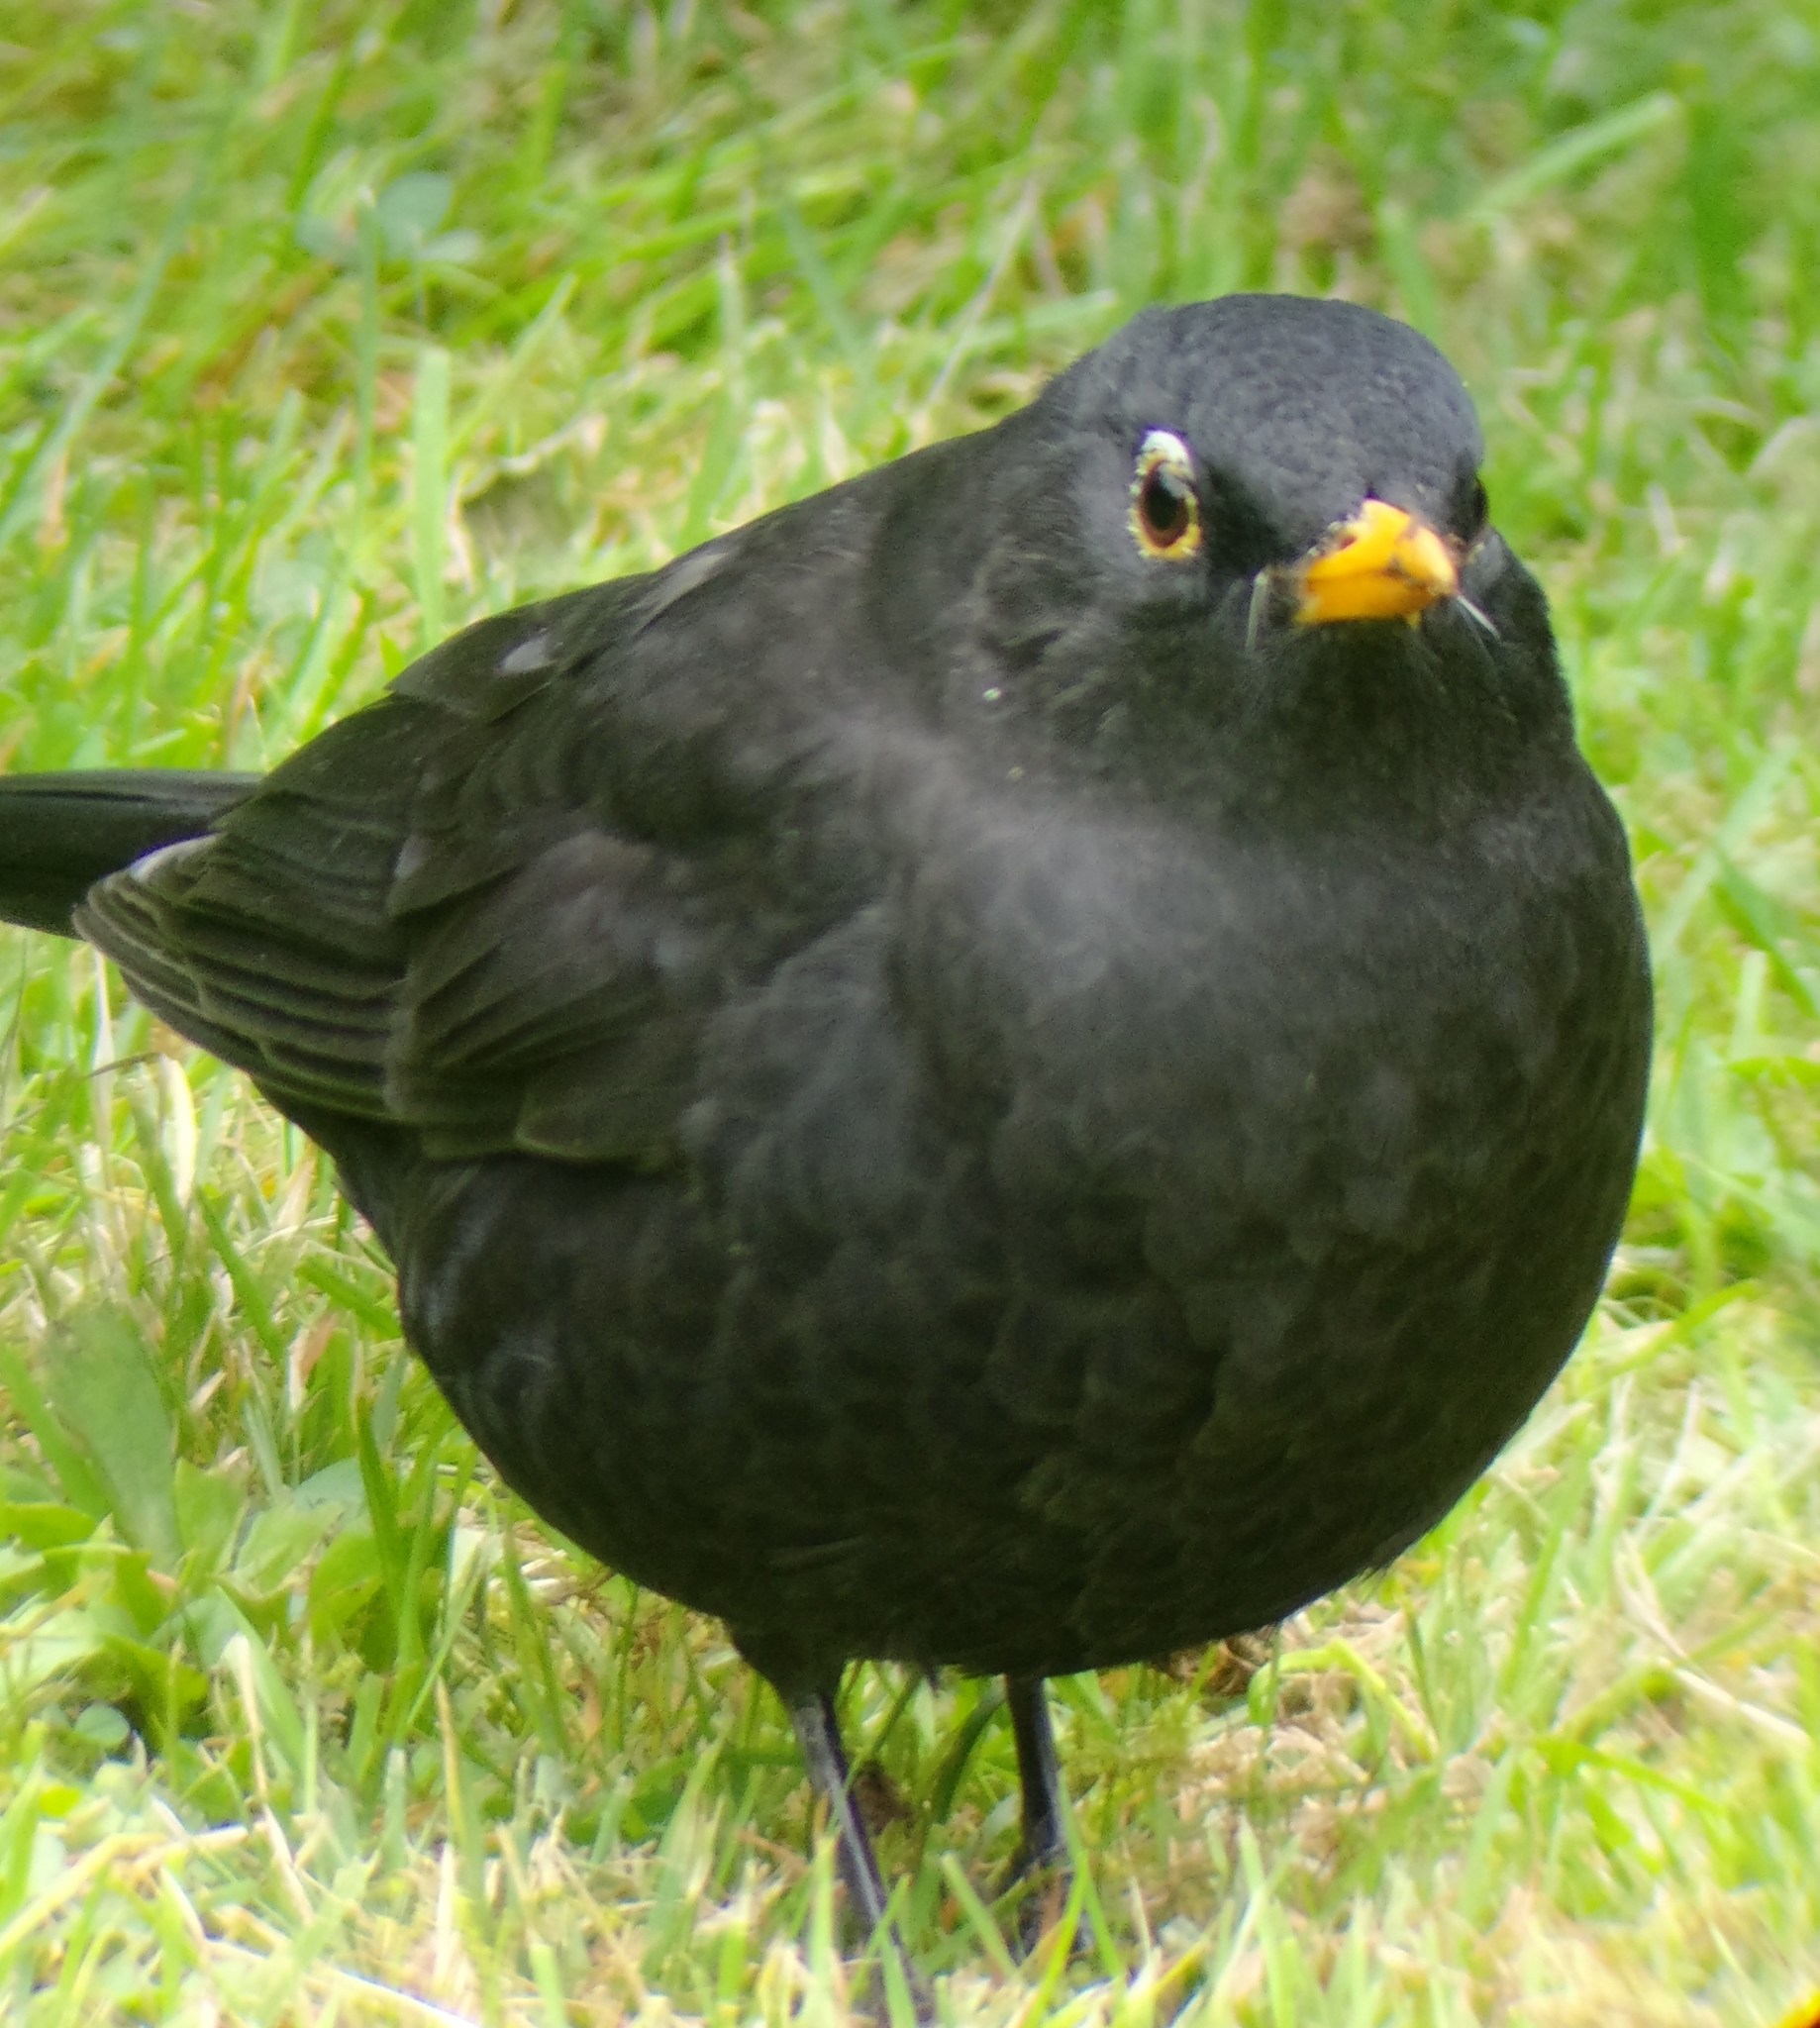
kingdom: Animalia
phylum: Chordata
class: Aves
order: Passeriformes
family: Turdidae
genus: Turdus
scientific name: Turdus merula
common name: Common blackbird
